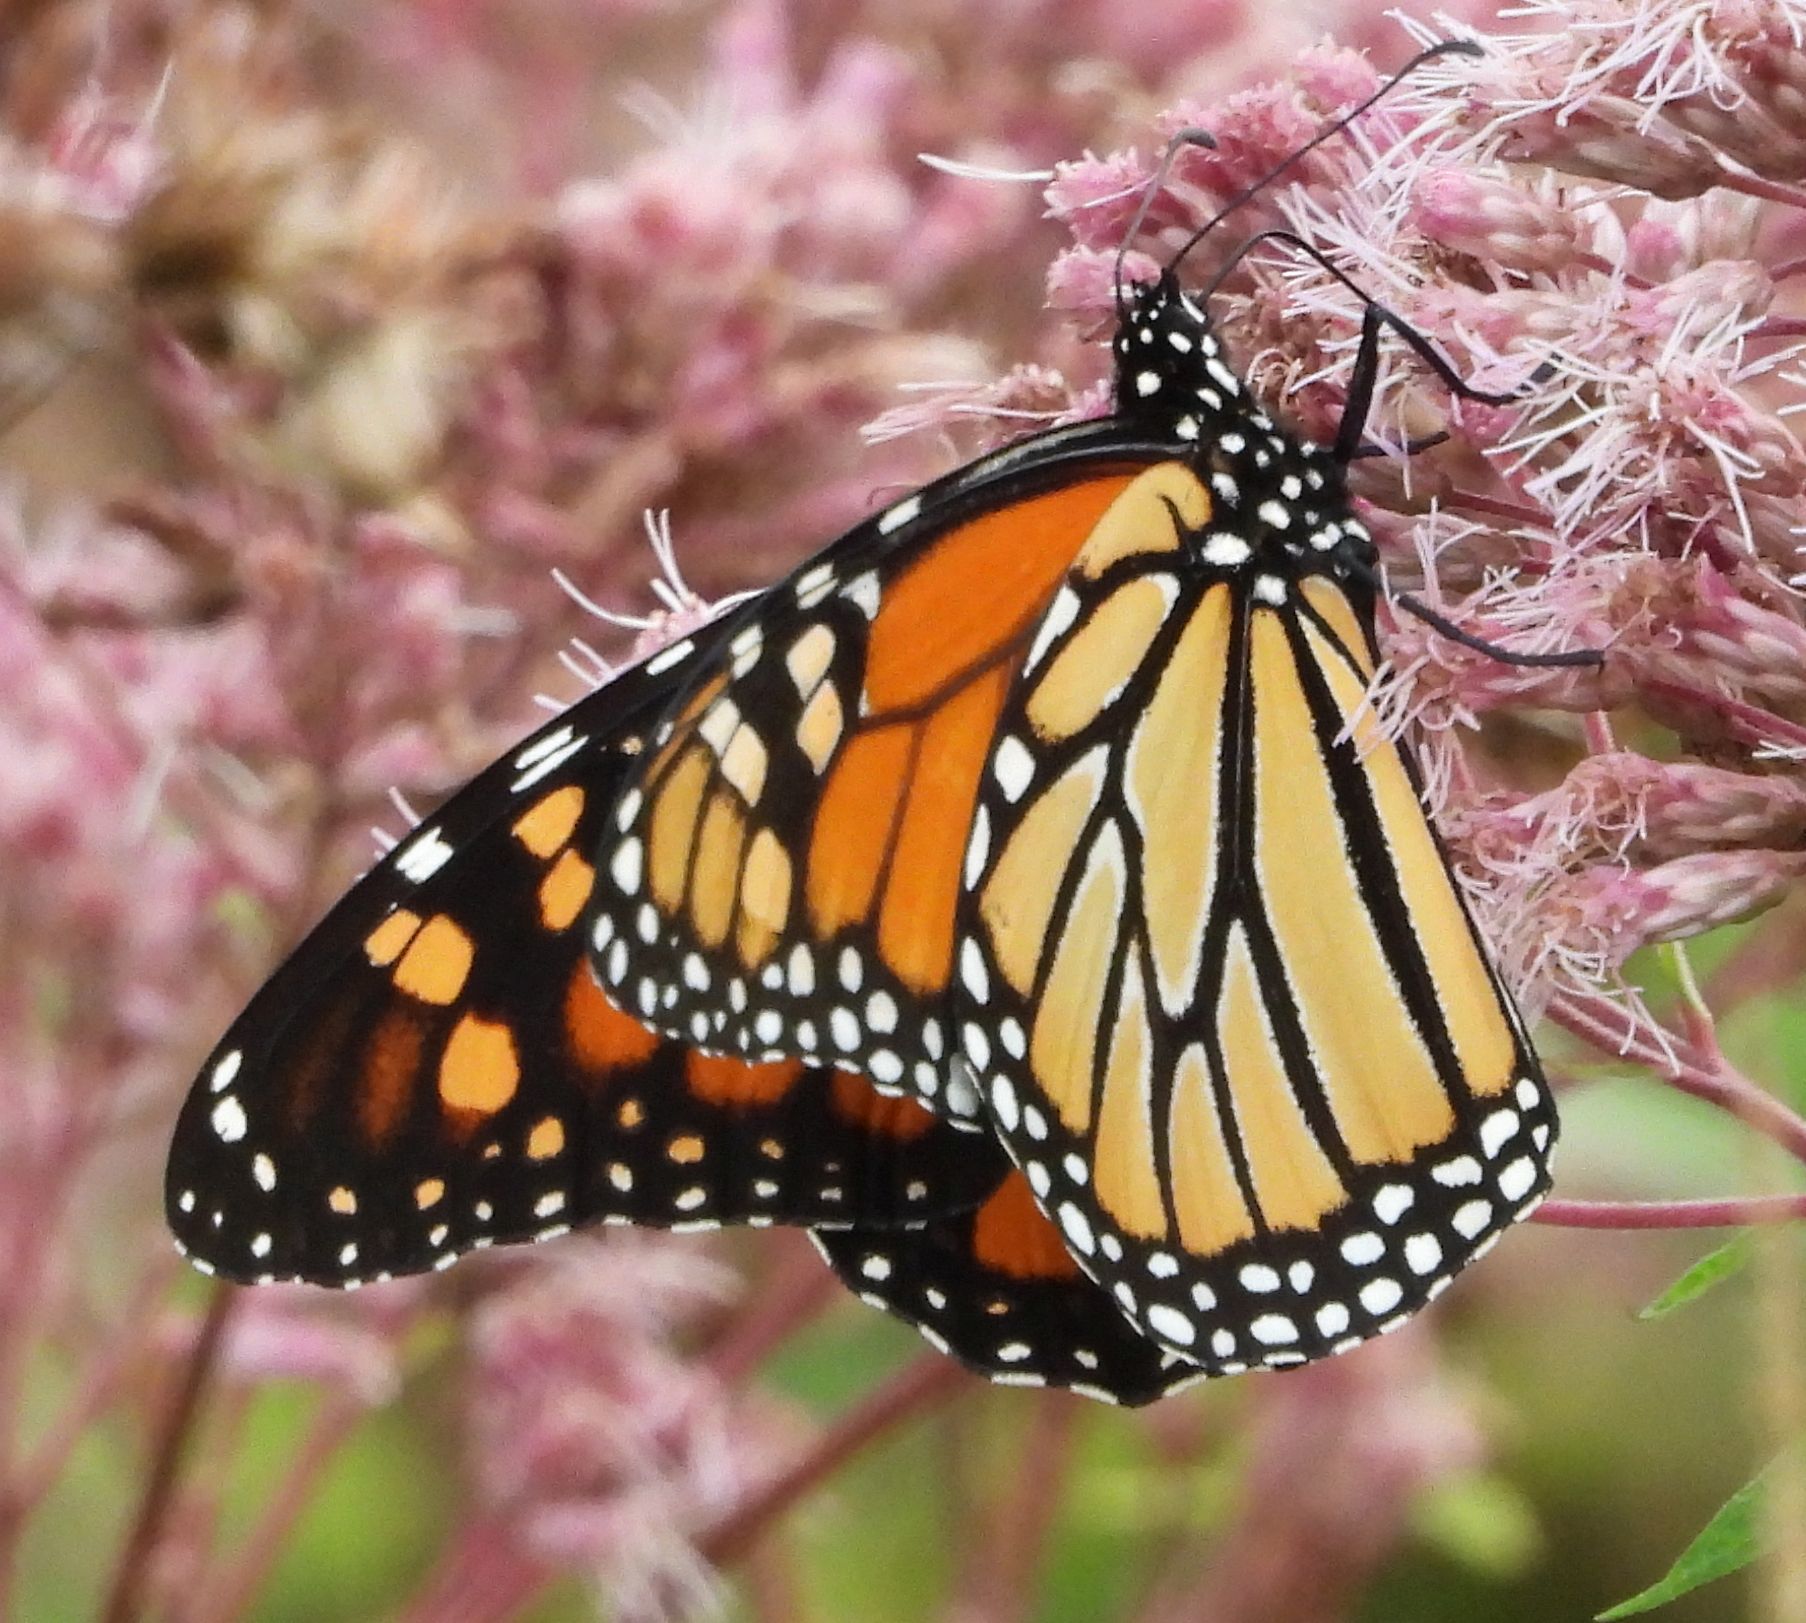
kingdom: Animalia
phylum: Arthropoda
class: Insecta
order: Lepidoptera
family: Nymphalidae
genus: Danaus
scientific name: Danaus plexippus
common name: Monarch
